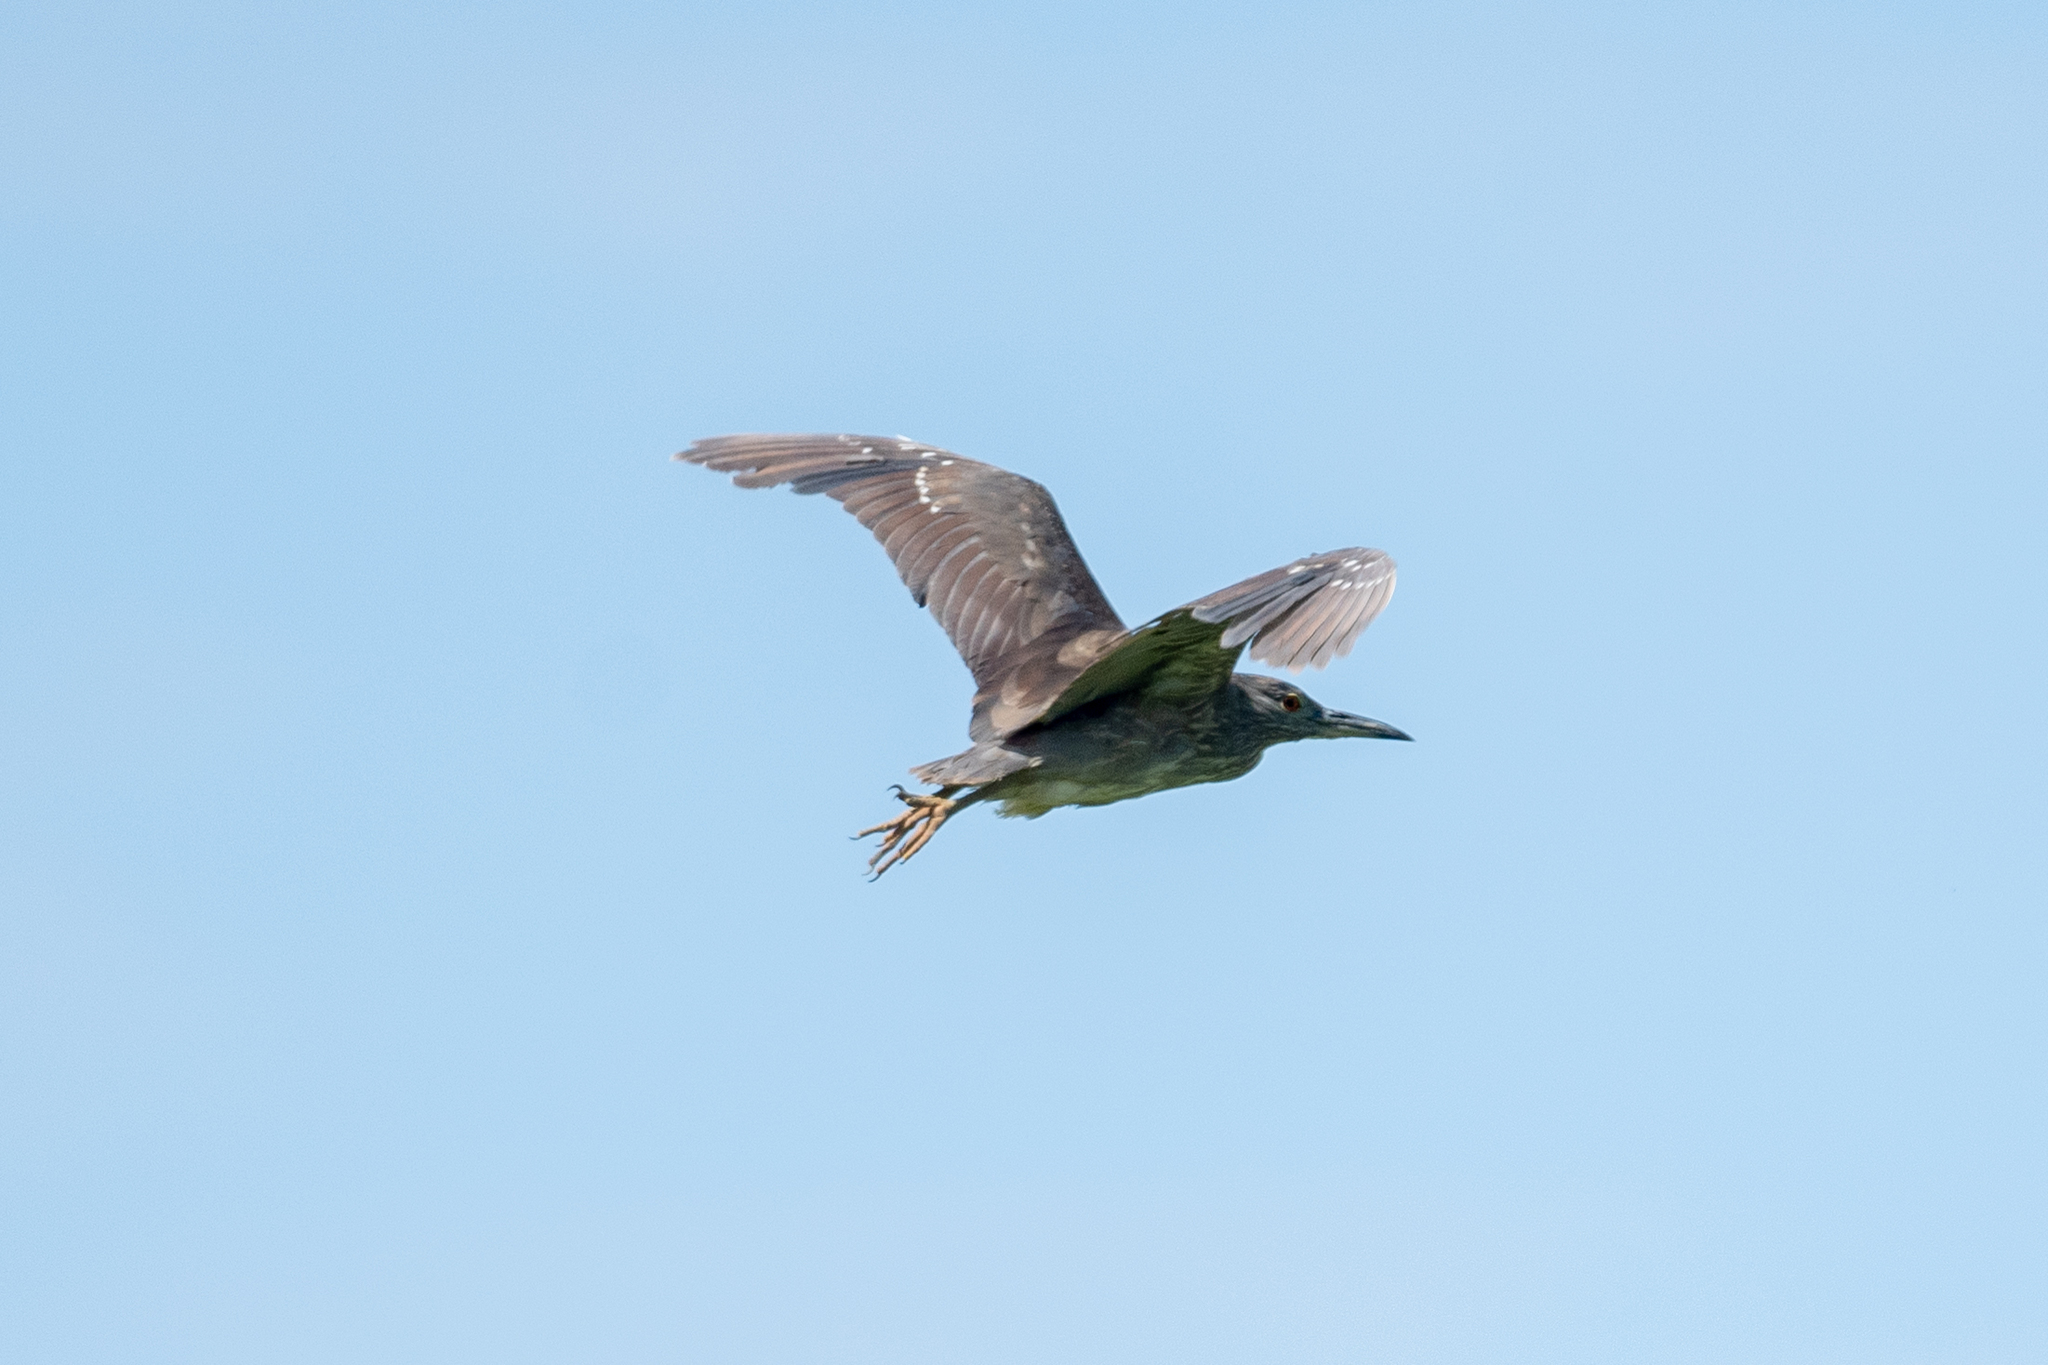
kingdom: Animalia
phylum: Chordata
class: Aves
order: Pelecaniformes
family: Ardeidae
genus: Nycticorax
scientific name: Nycticorax nycticorax
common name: Black-crowned night heron
